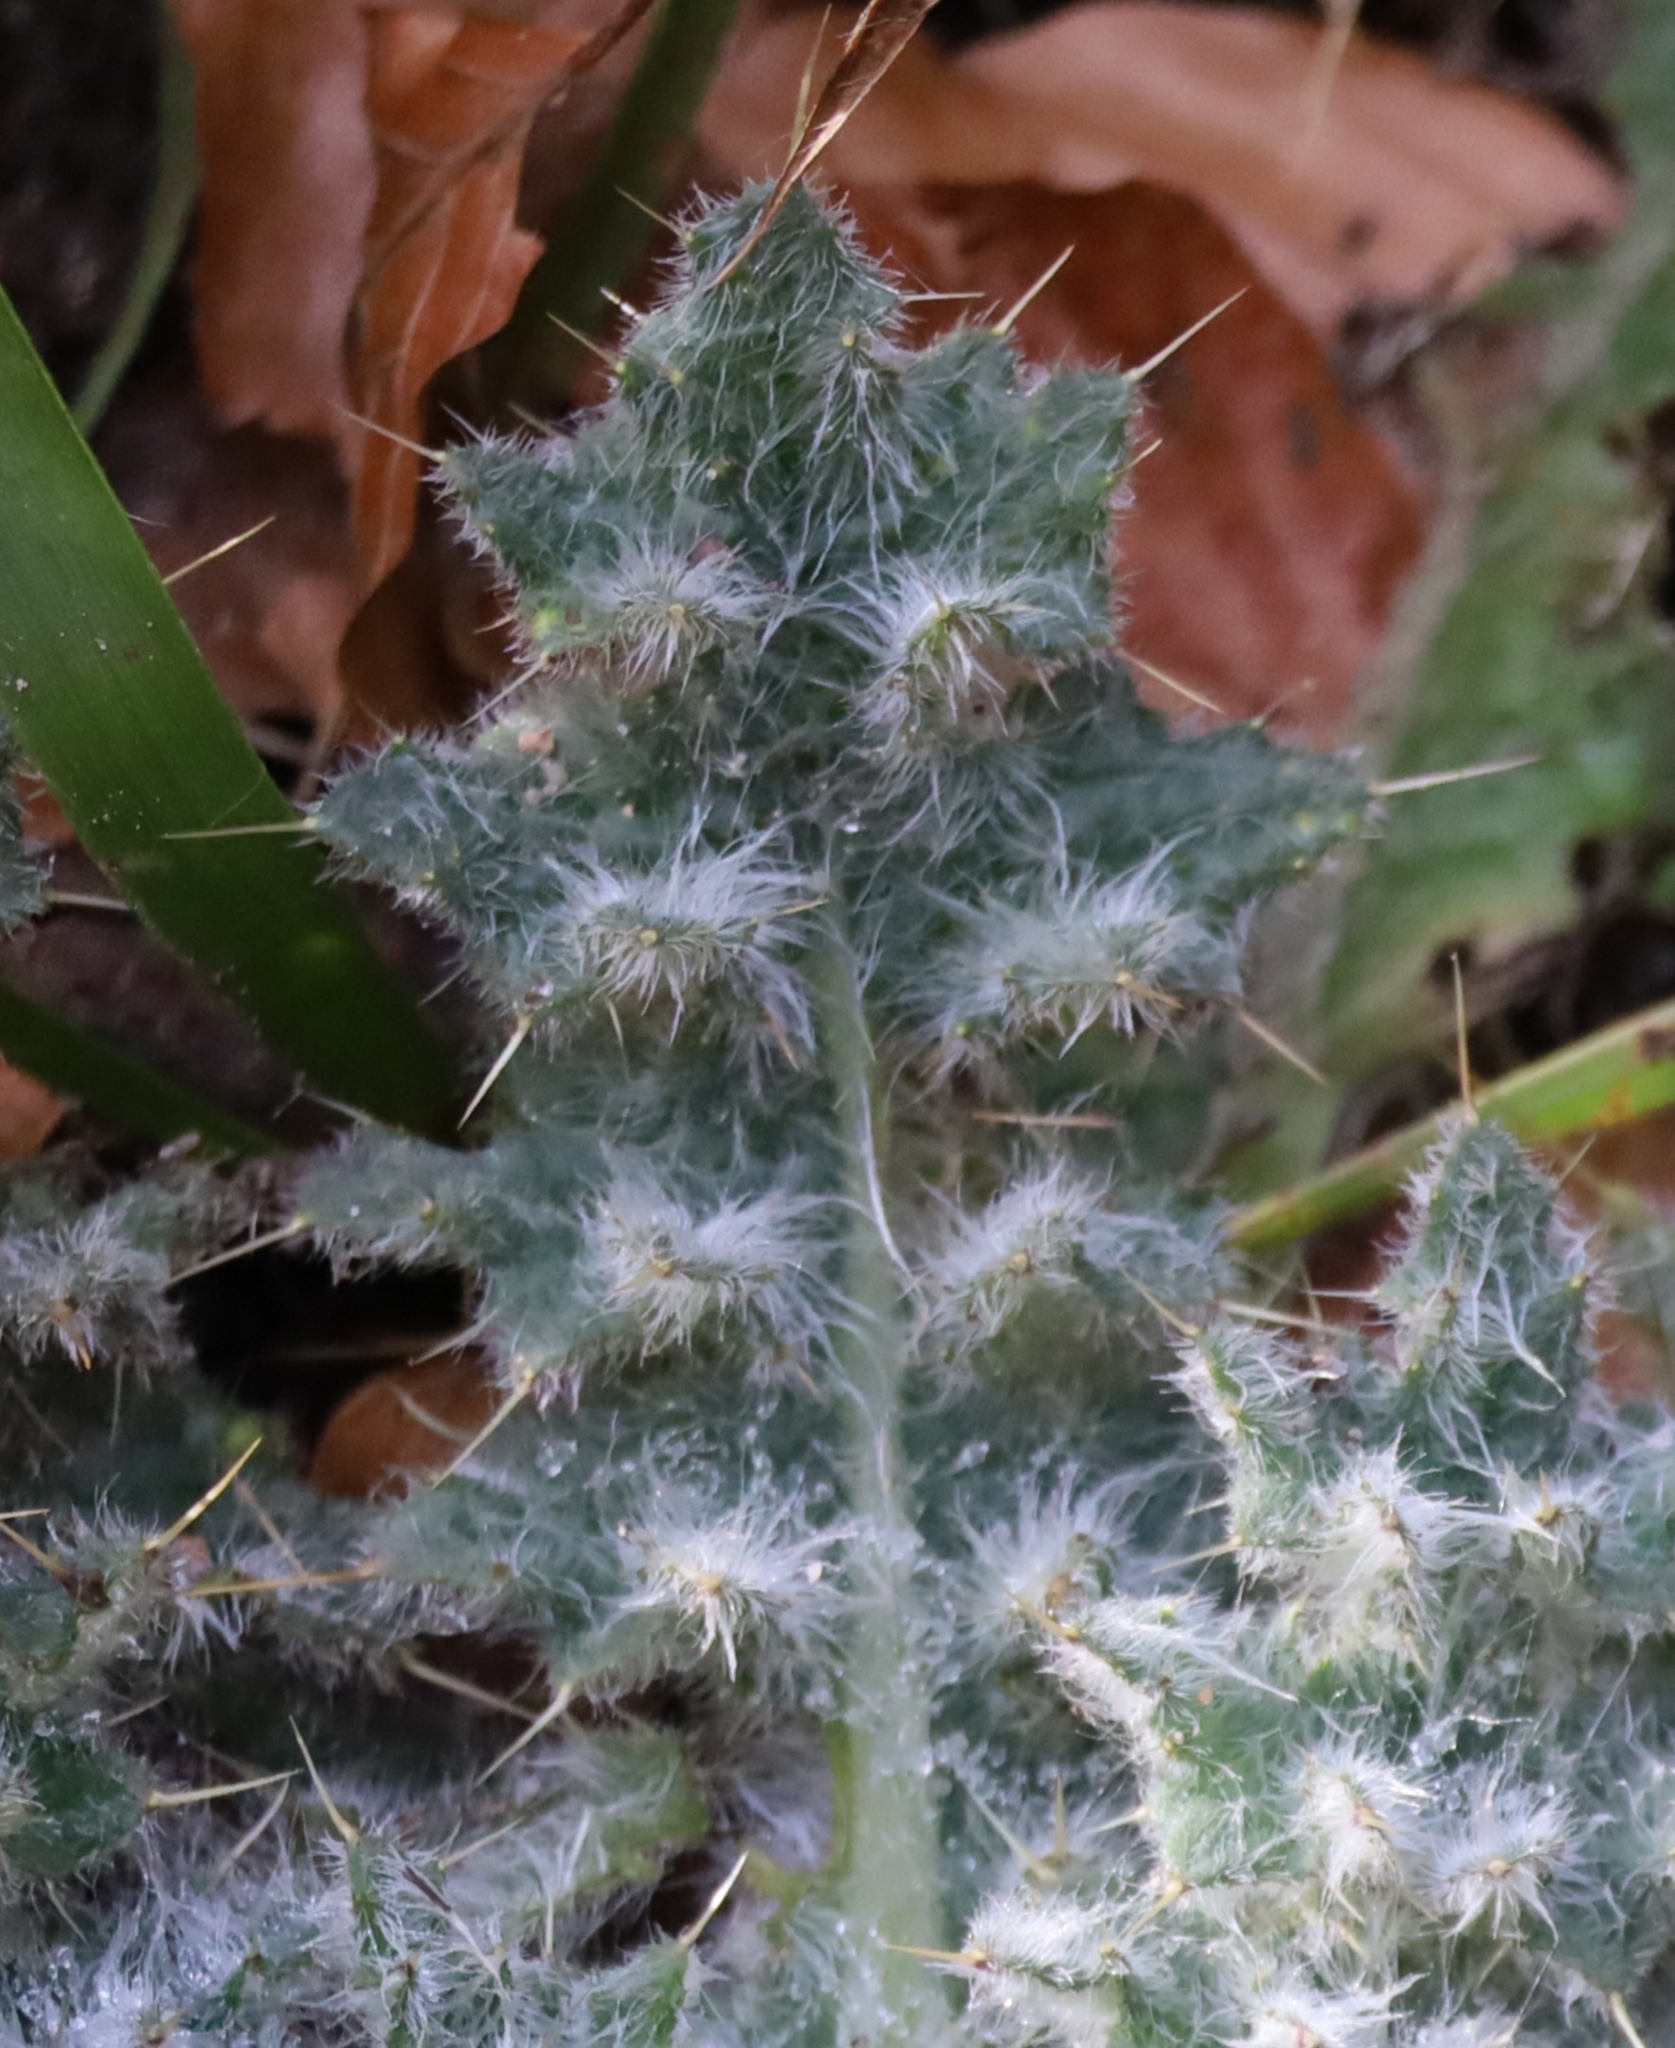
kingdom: Plantae
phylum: Tracheophyta
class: Magnoliopsida
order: Asterales
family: Asteraceae
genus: Cirsium
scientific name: Cirsium vulgare
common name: Bull thistle
